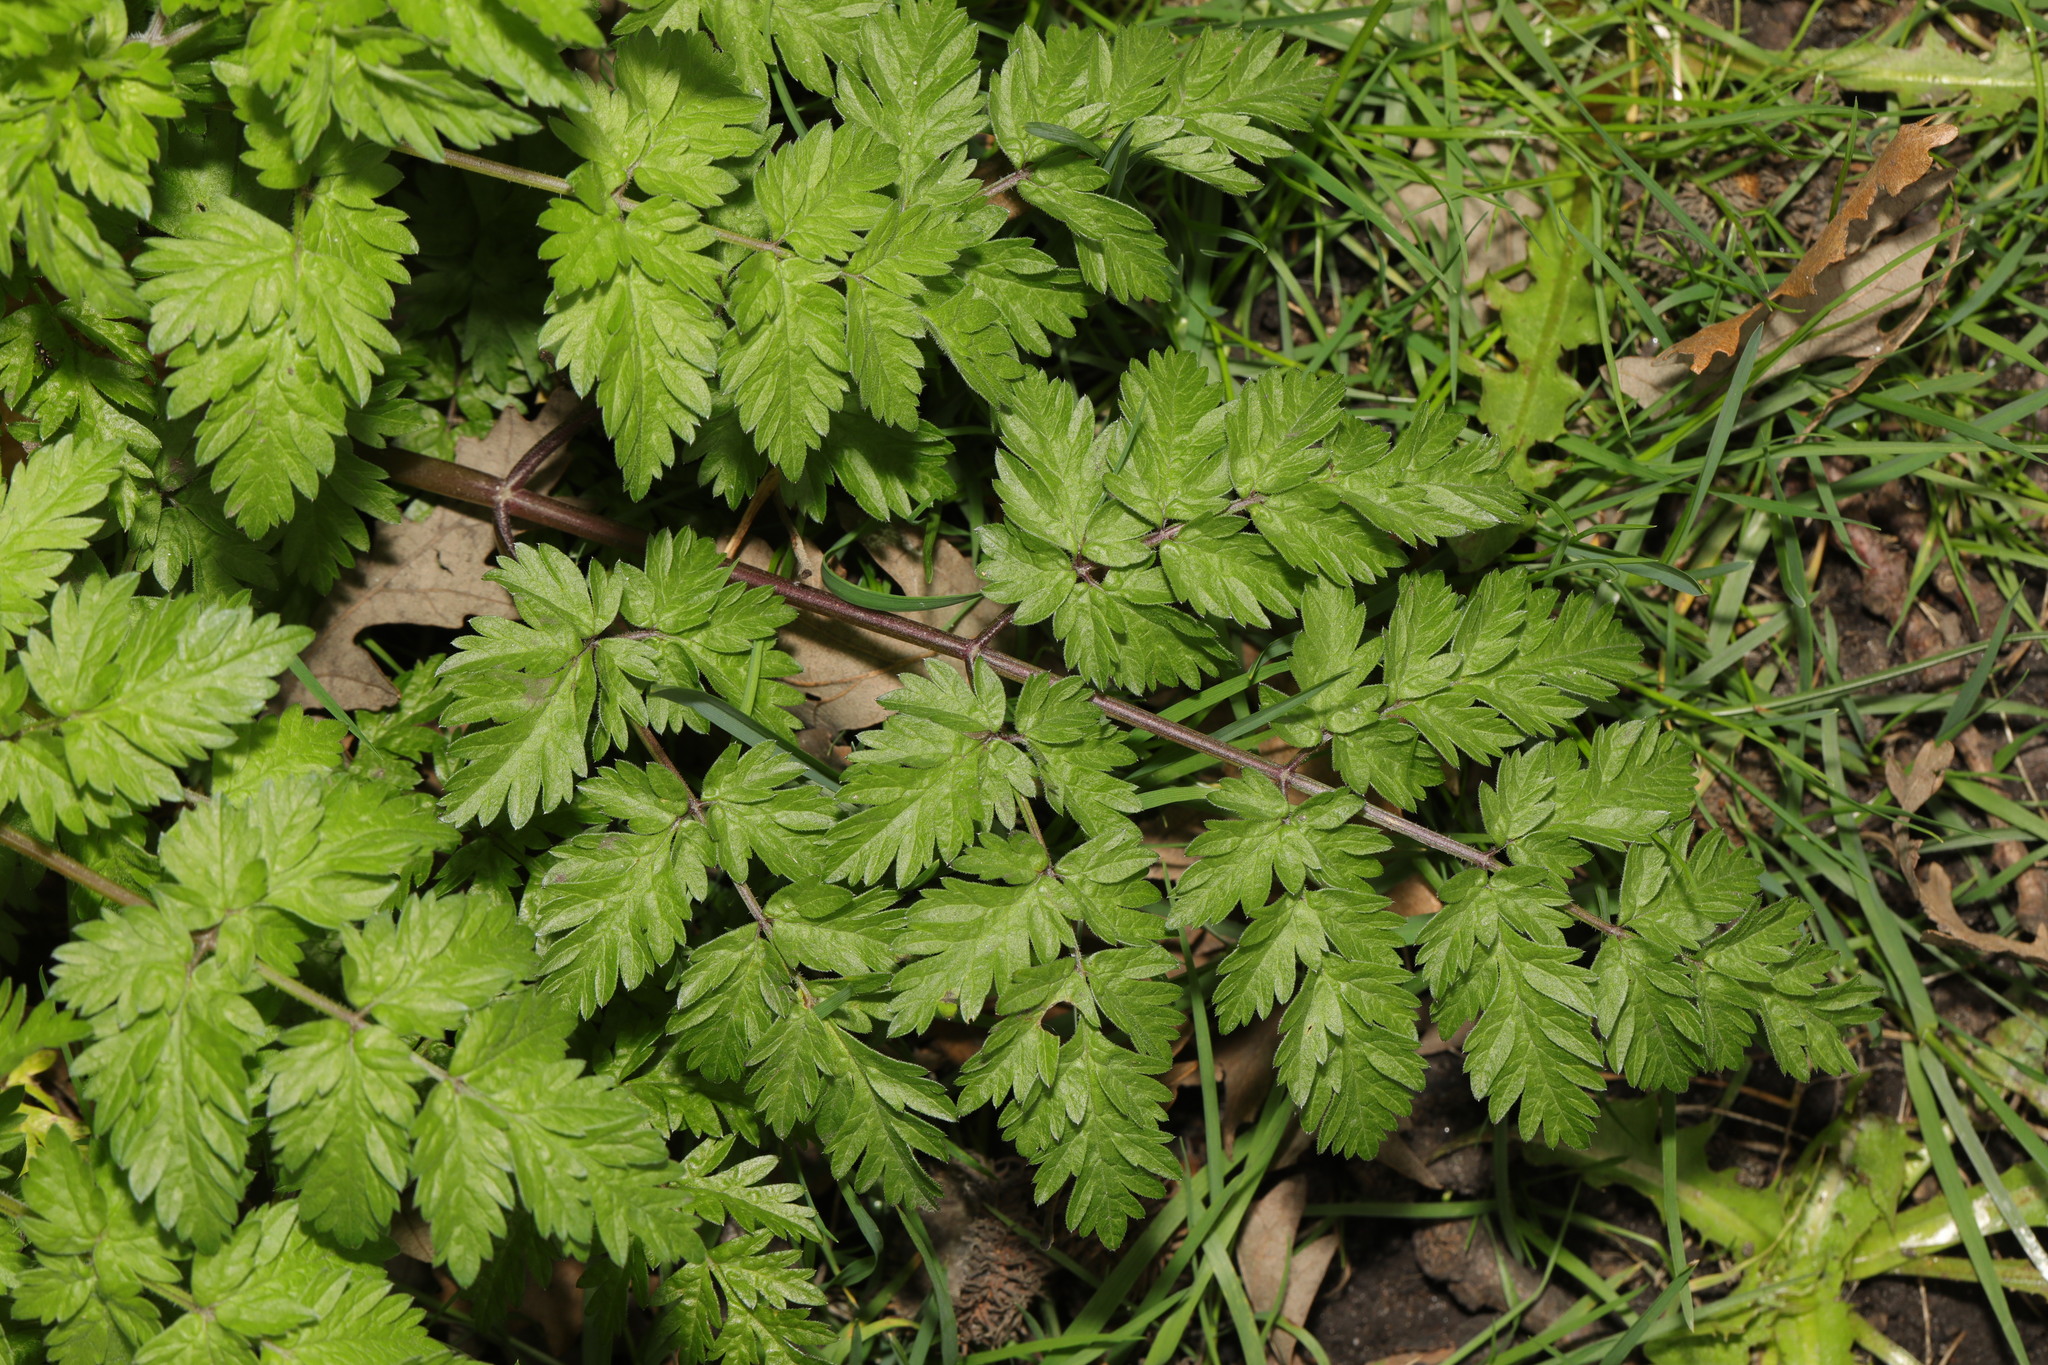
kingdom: Plantae
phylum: Tracheophyta
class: Magnoliopsida
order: Apiales
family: Apiaceae
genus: Anthriscus
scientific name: Anthriscus sylvestris
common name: Cow parsley
